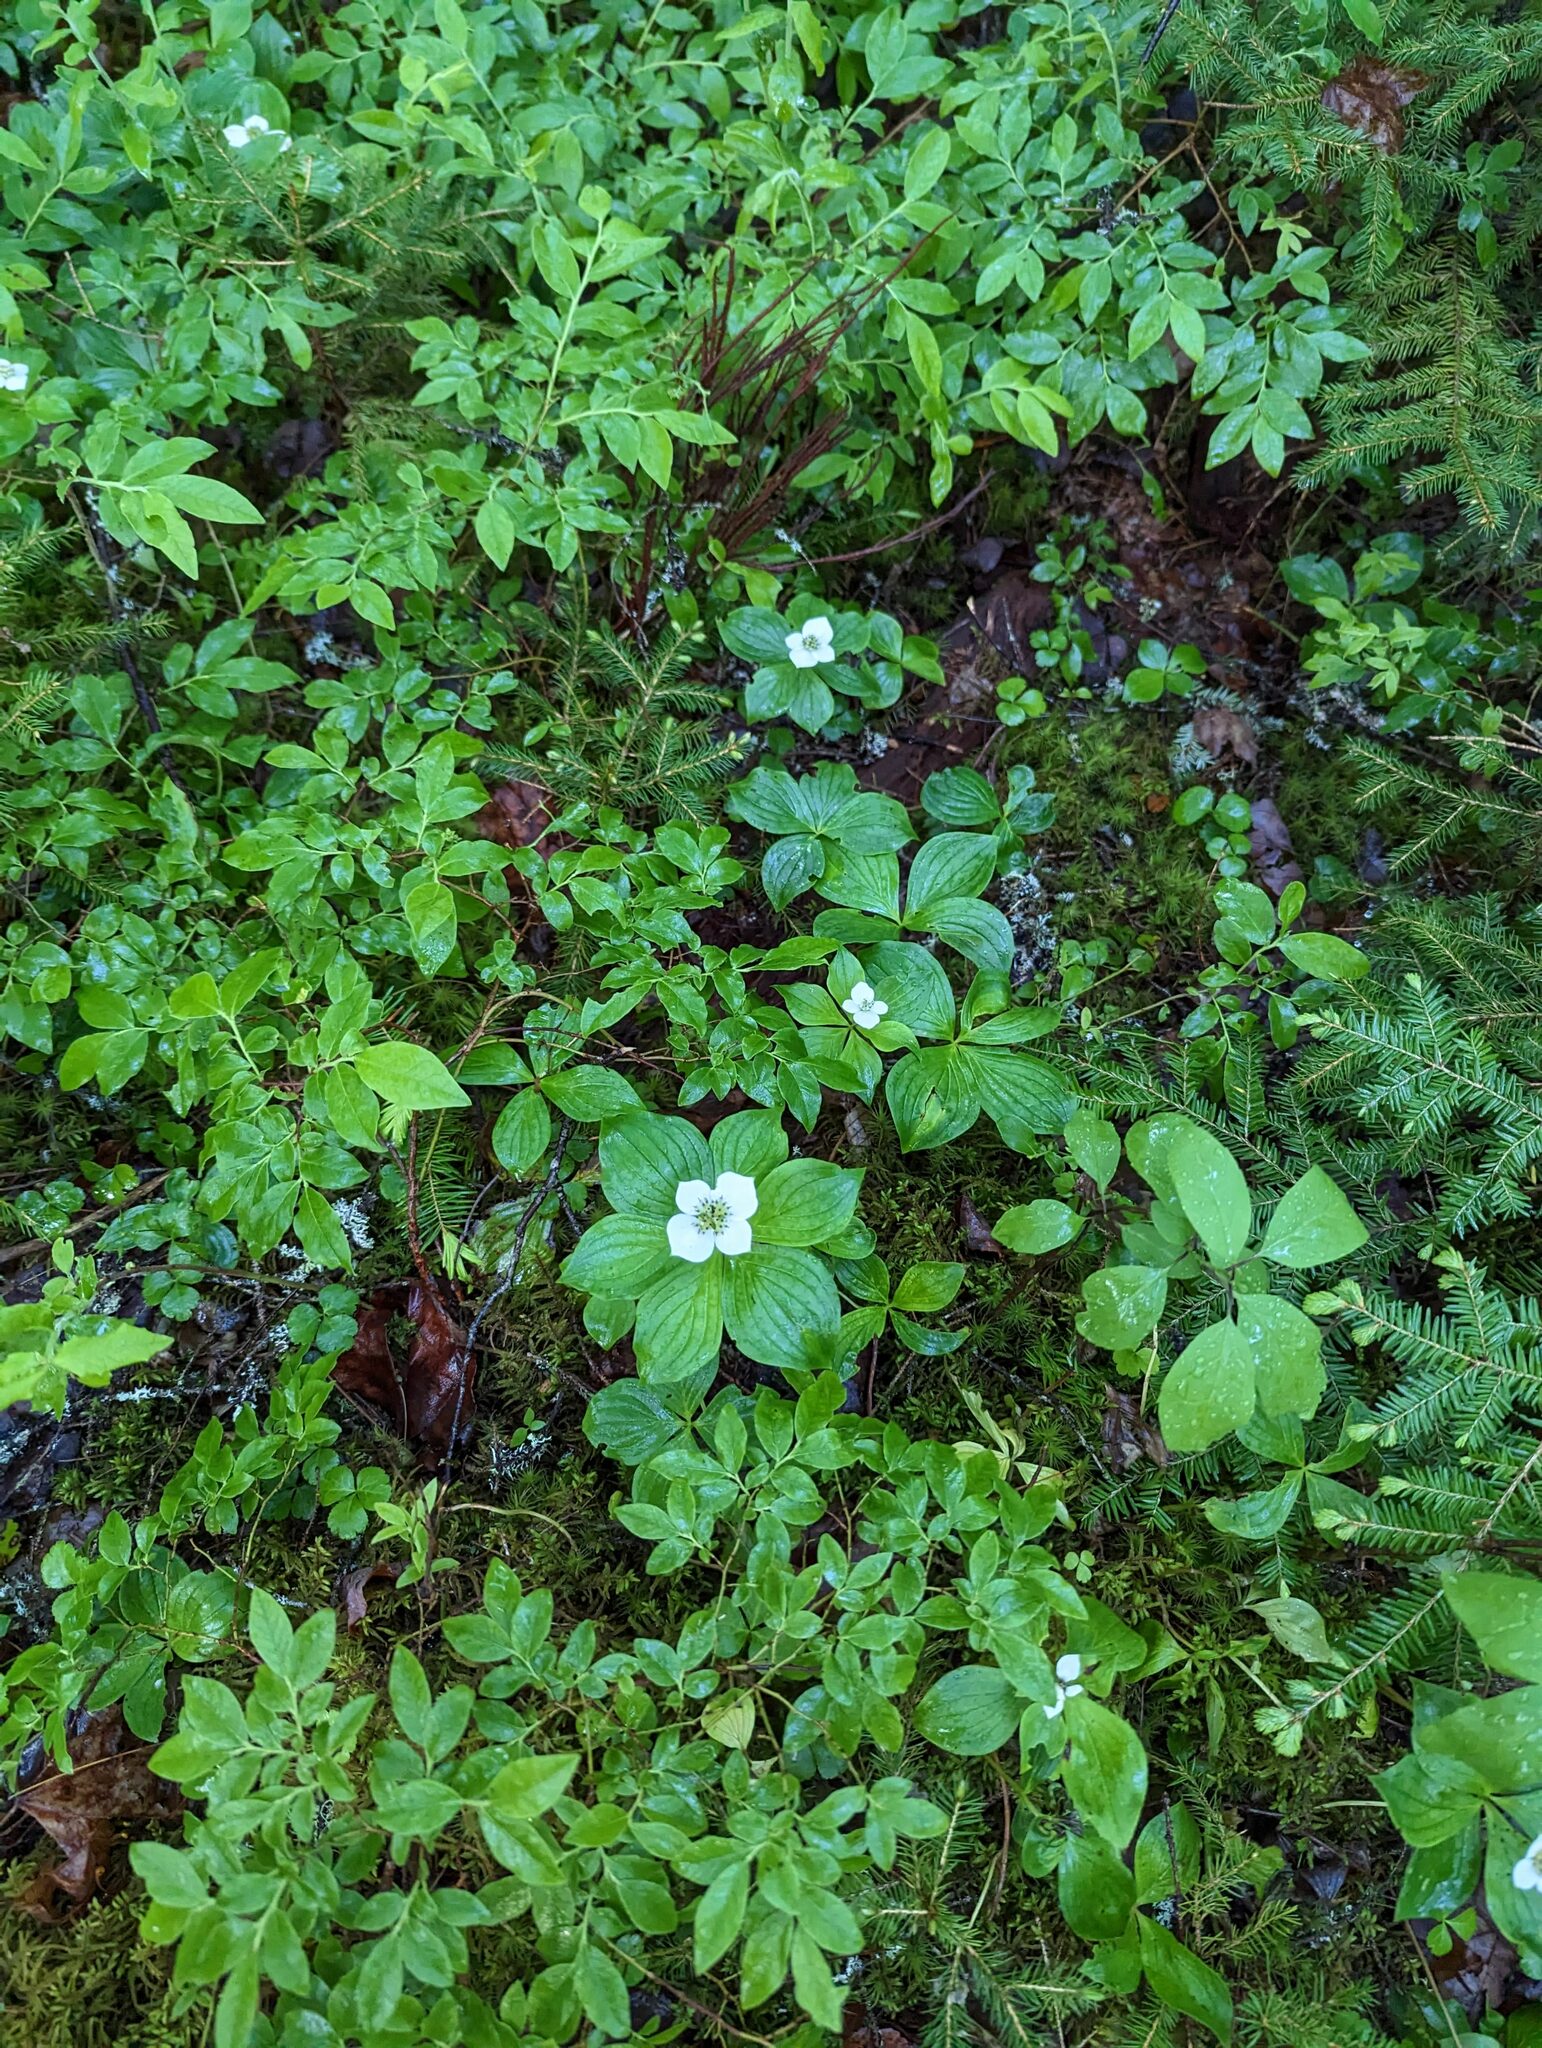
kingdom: Plantae
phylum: Tracheophyta
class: Magnoliopsida
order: Cornales
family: Cornaceae
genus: Cornus
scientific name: Cornus canadensis
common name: Creeping dogwood
